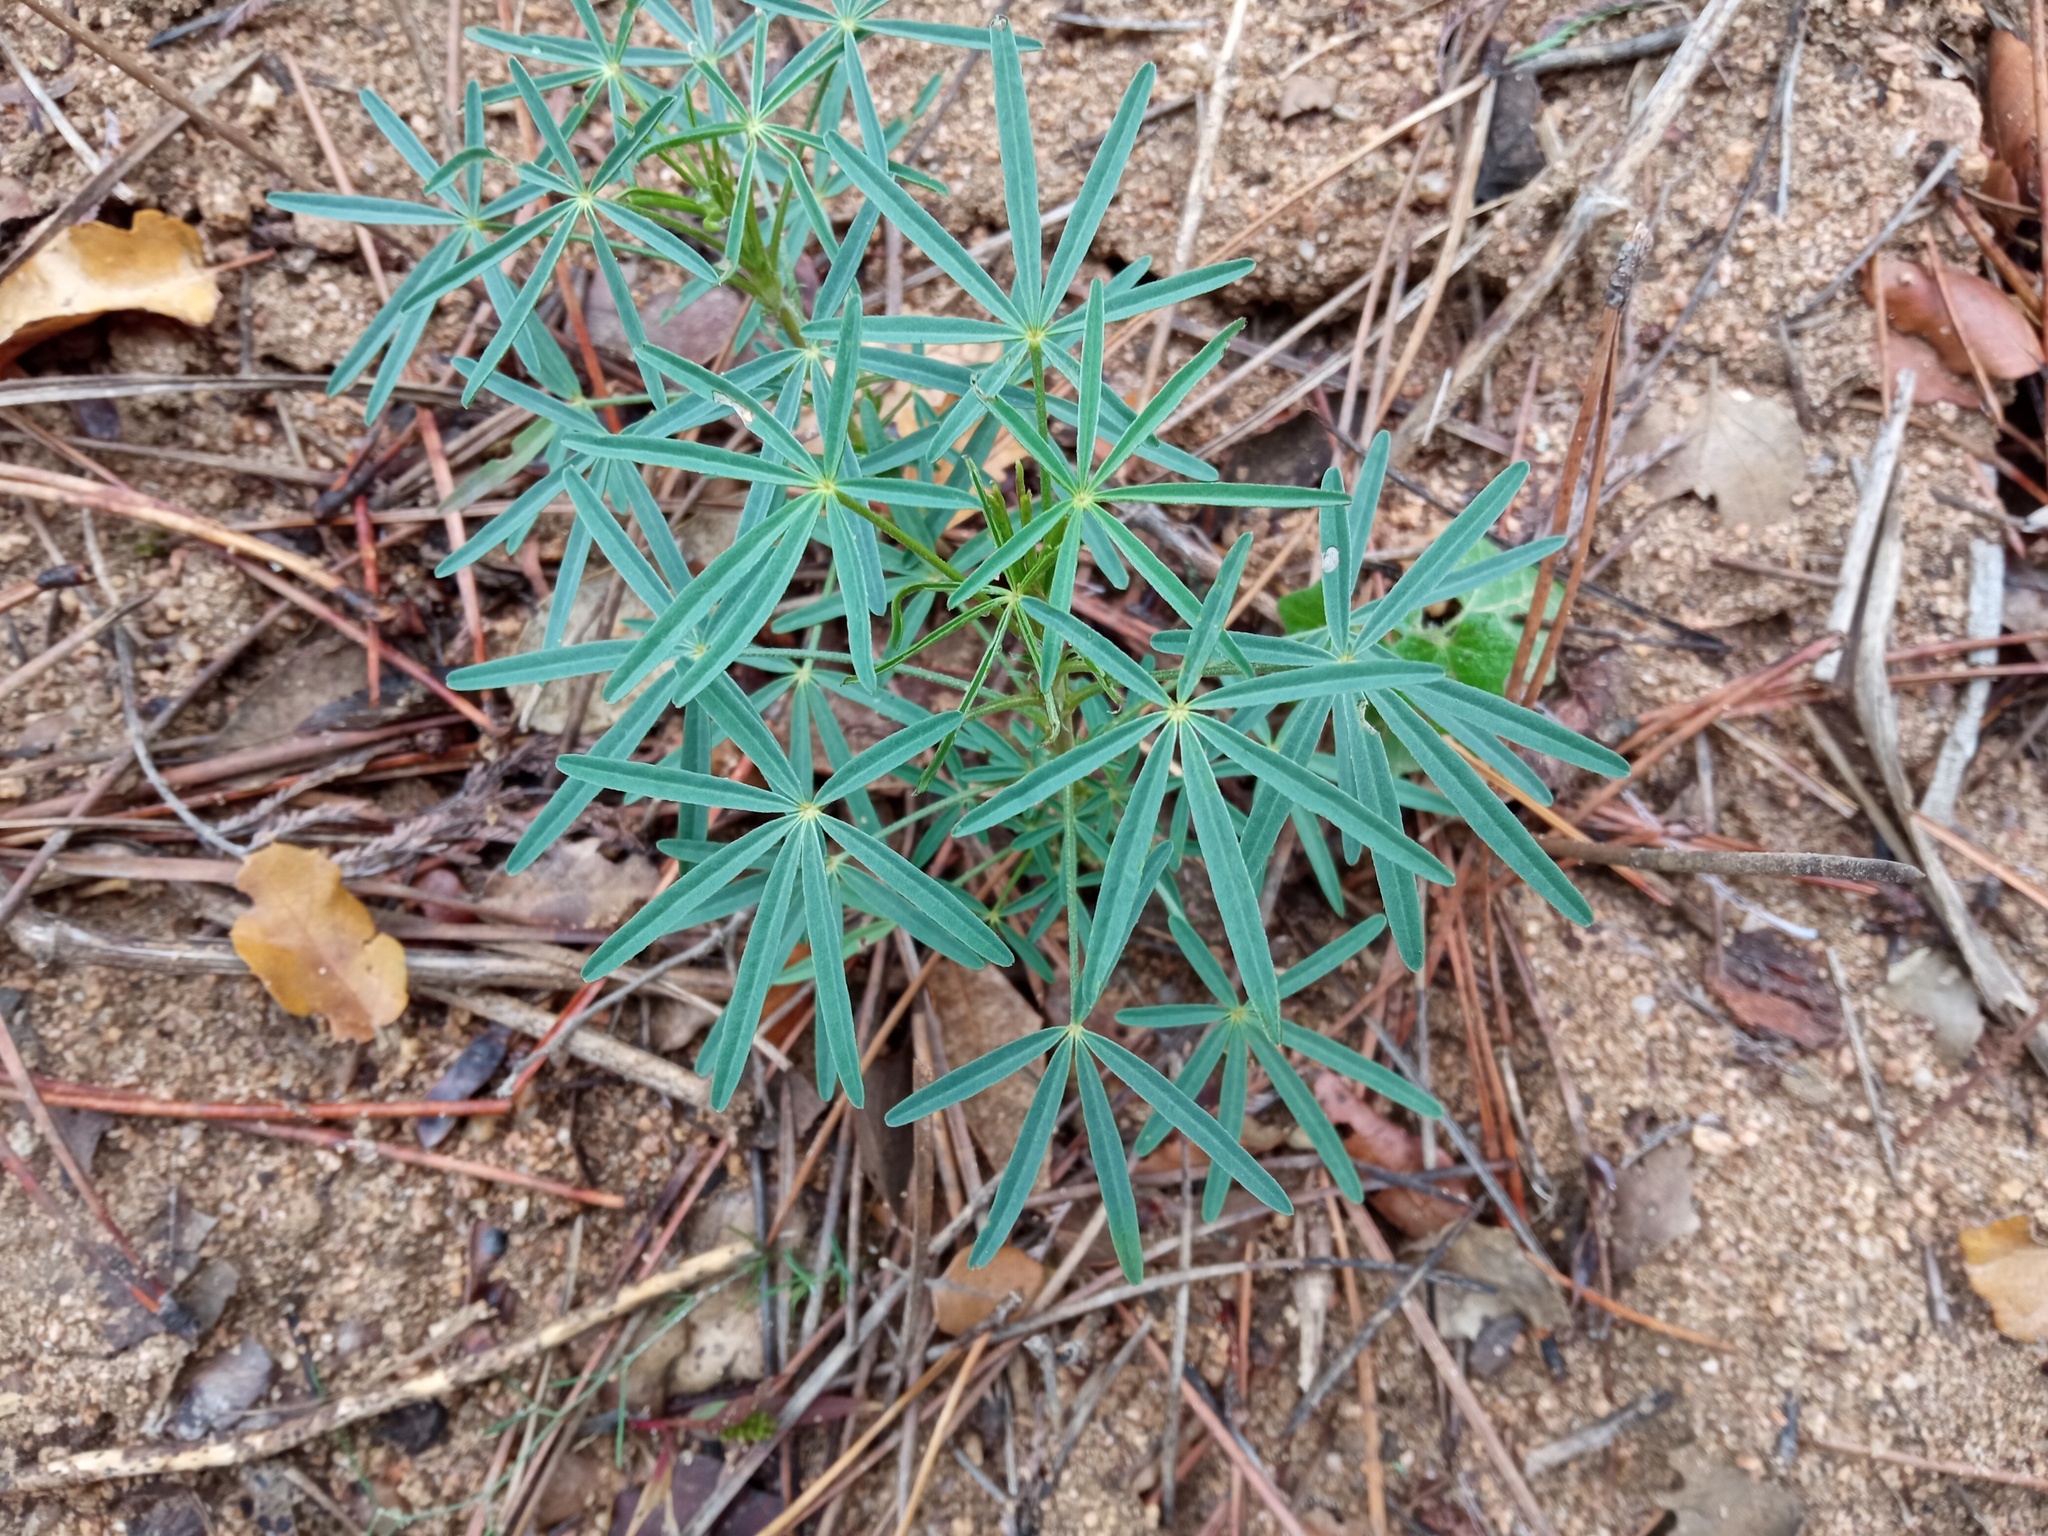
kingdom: Plantae
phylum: Tracheophyta
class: Magnoliopsida
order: Fabales
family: Fabaceae
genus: Lupinus
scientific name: Lupinus angustifolius
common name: Narrow-leaved lupin
